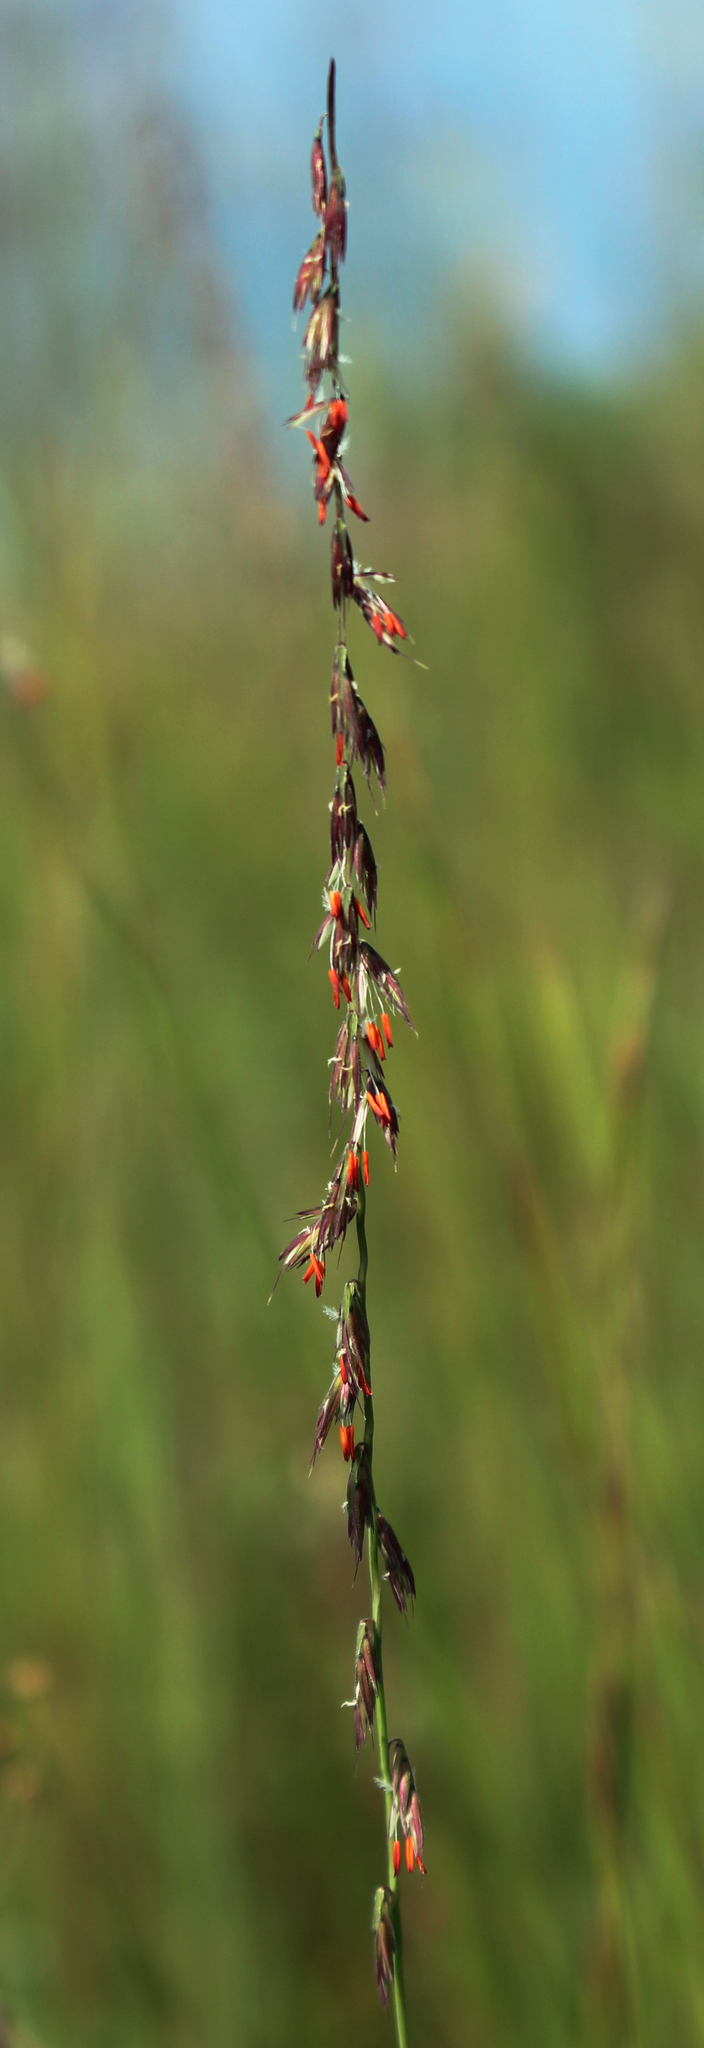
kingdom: Plantae
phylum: Tracheophyta
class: Liliopsida
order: Poales
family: Poaceae
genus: Bouteloua
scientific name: Bouteloua curtipendula
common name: Side-oats grama
